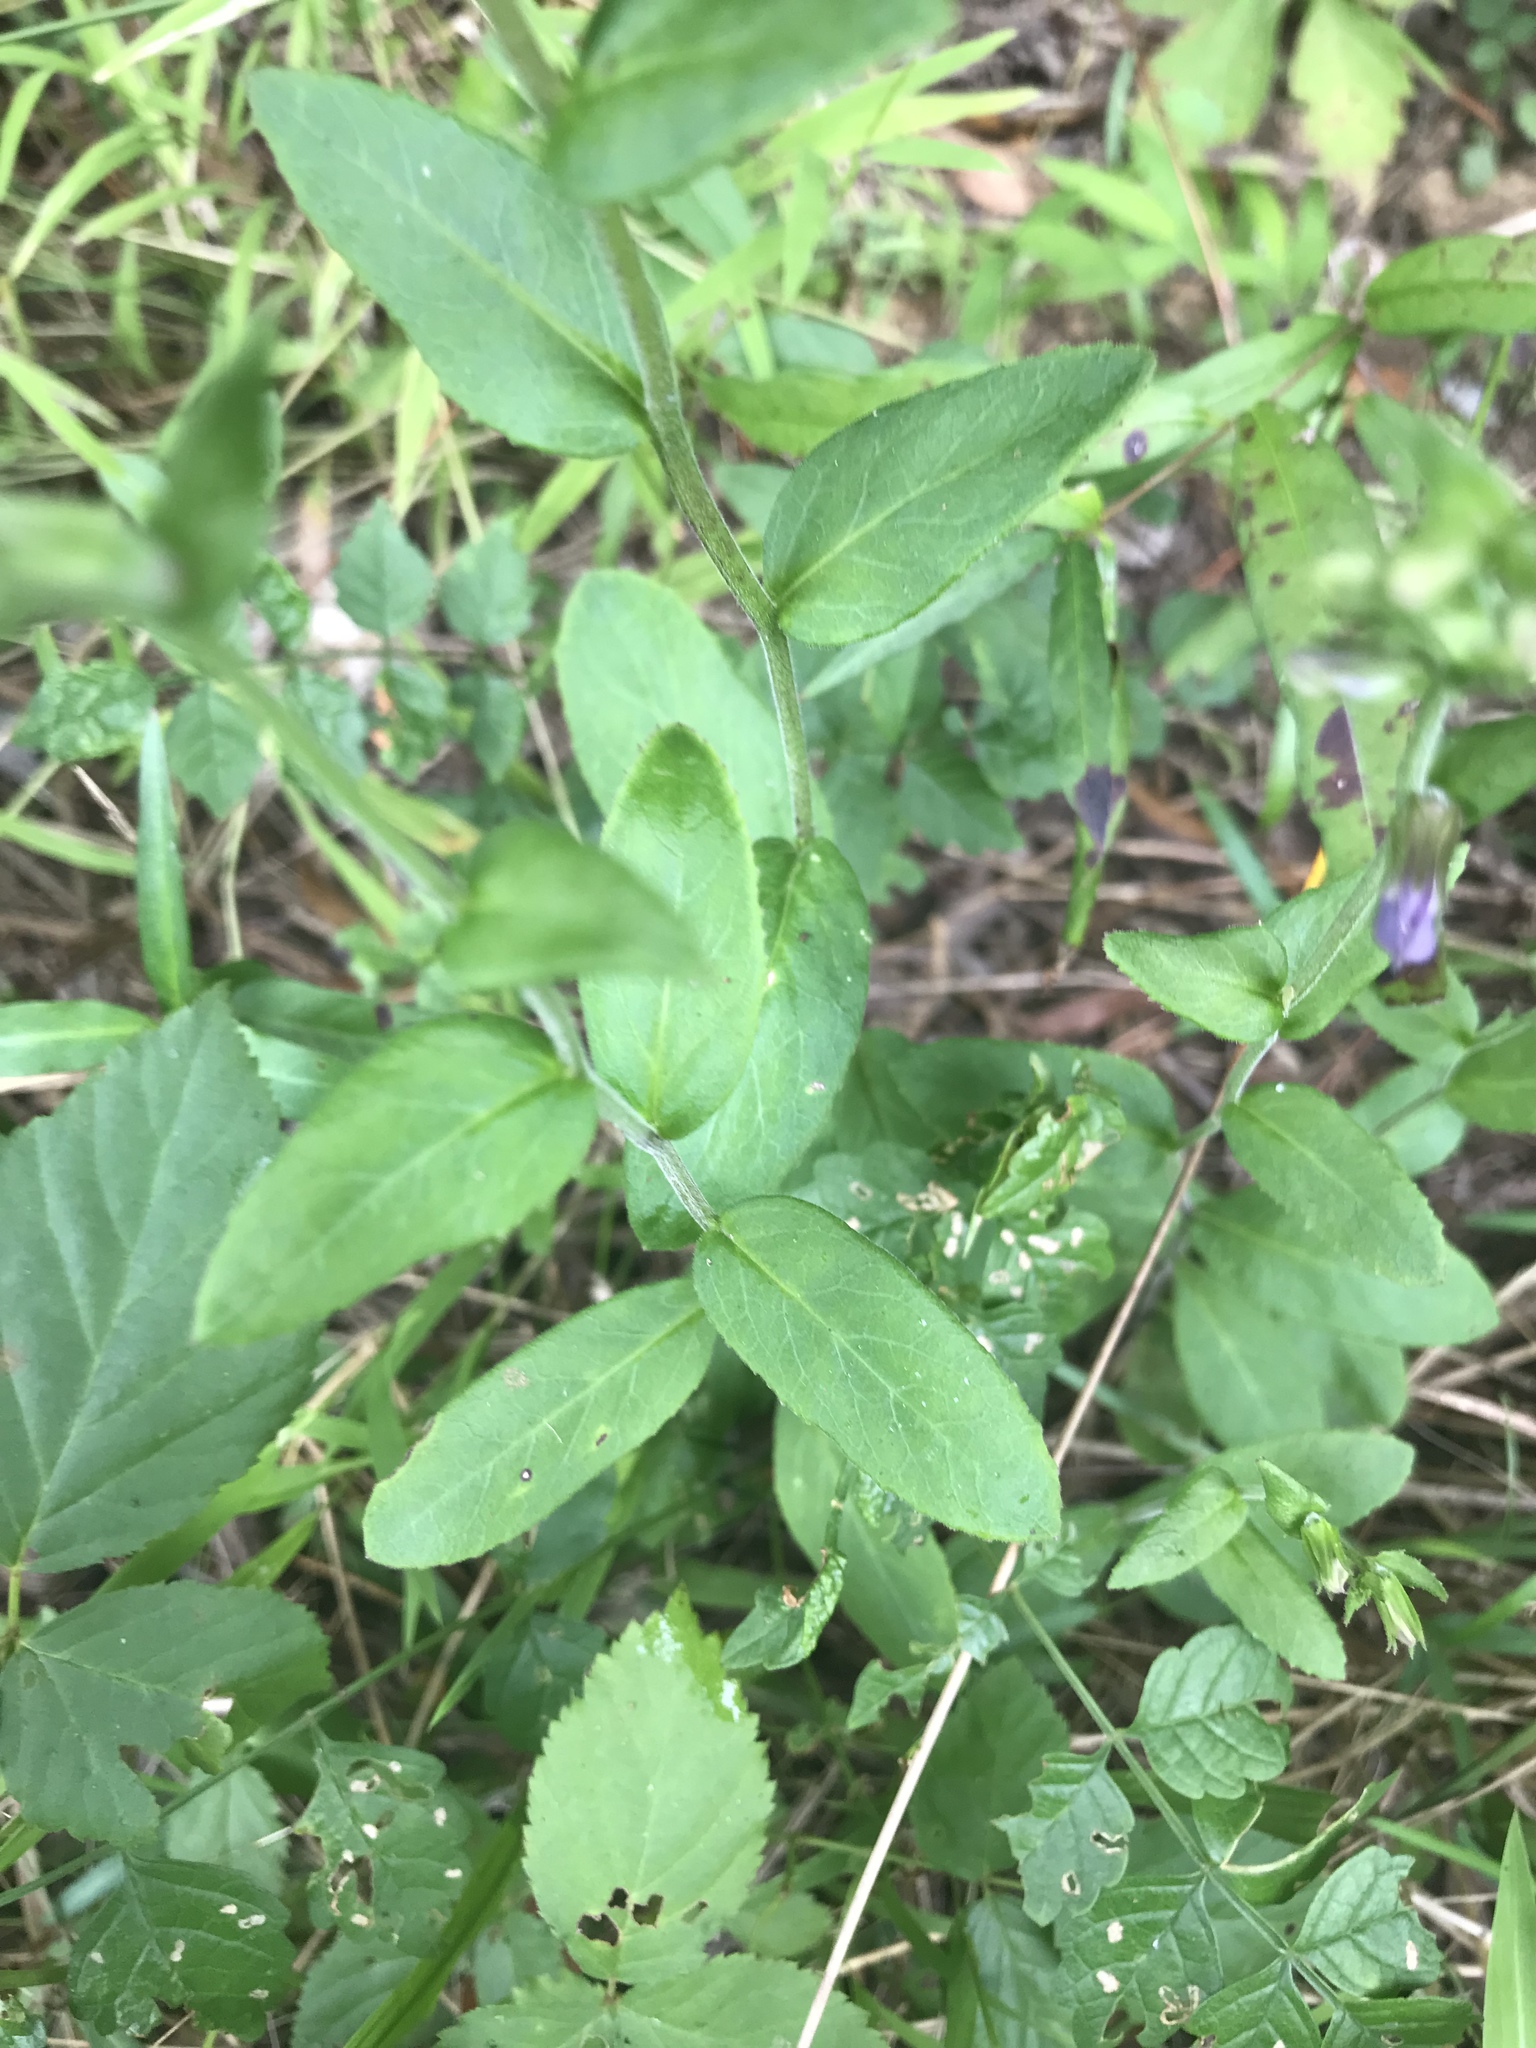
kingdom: Plantae
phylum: Tracheophyta
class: Magnoliopsida
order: Asterales
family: Campanulaceae
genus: Lobelia
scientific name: Lobelia puberula
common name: Purple dewdrop
